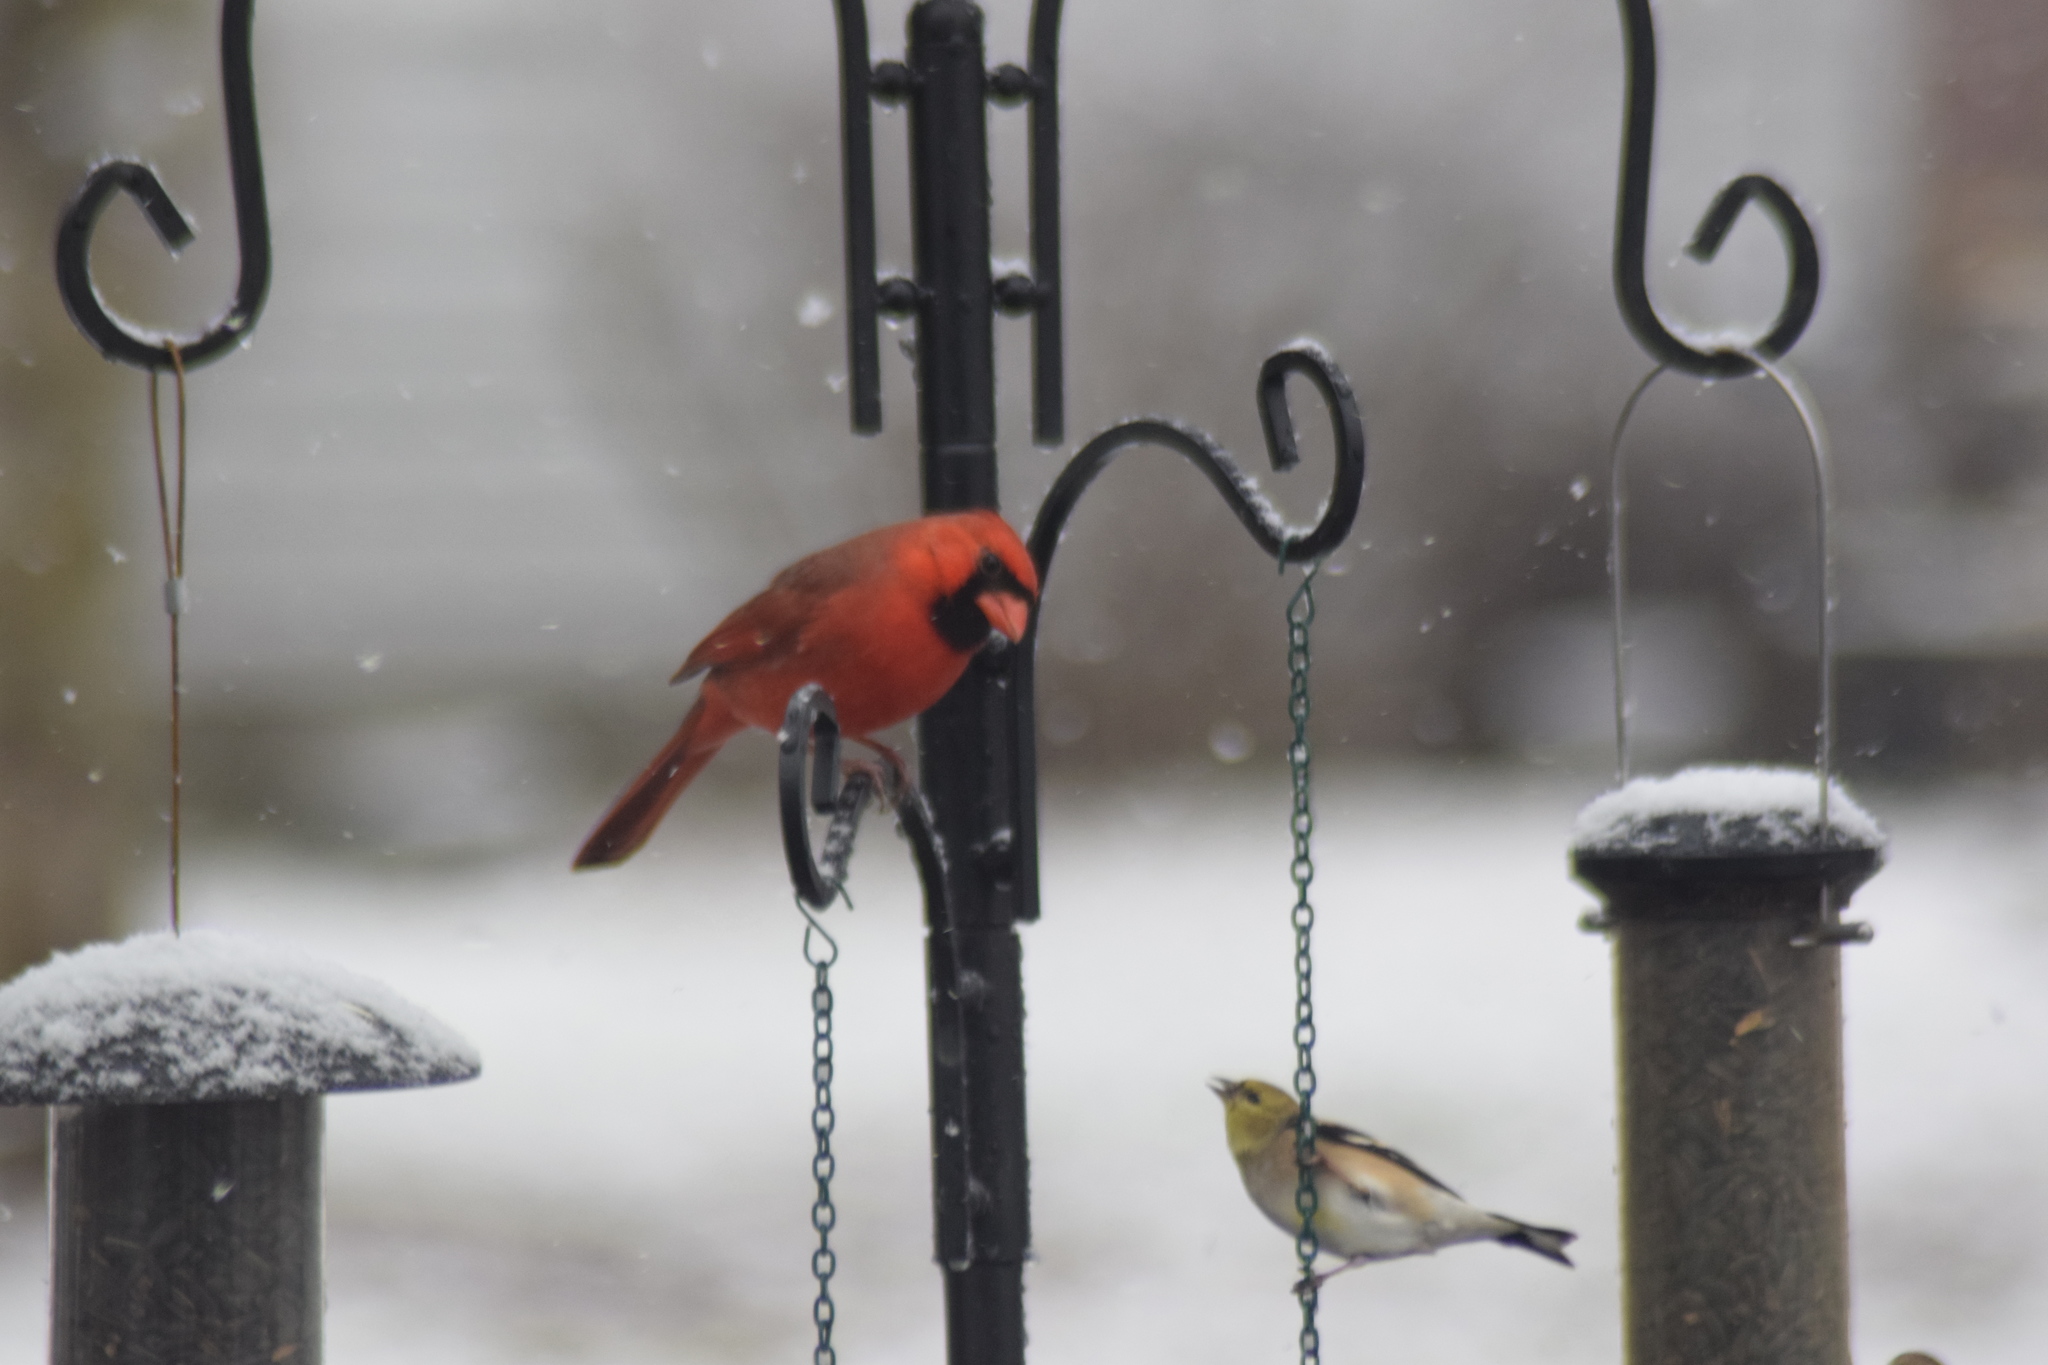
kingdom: Animalia
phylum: Chordata
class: Aves
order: Passeriformes
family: Cardinalidae
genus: Cardinalis
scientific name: Cardinalis cardinalis
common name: Northern cardinal
